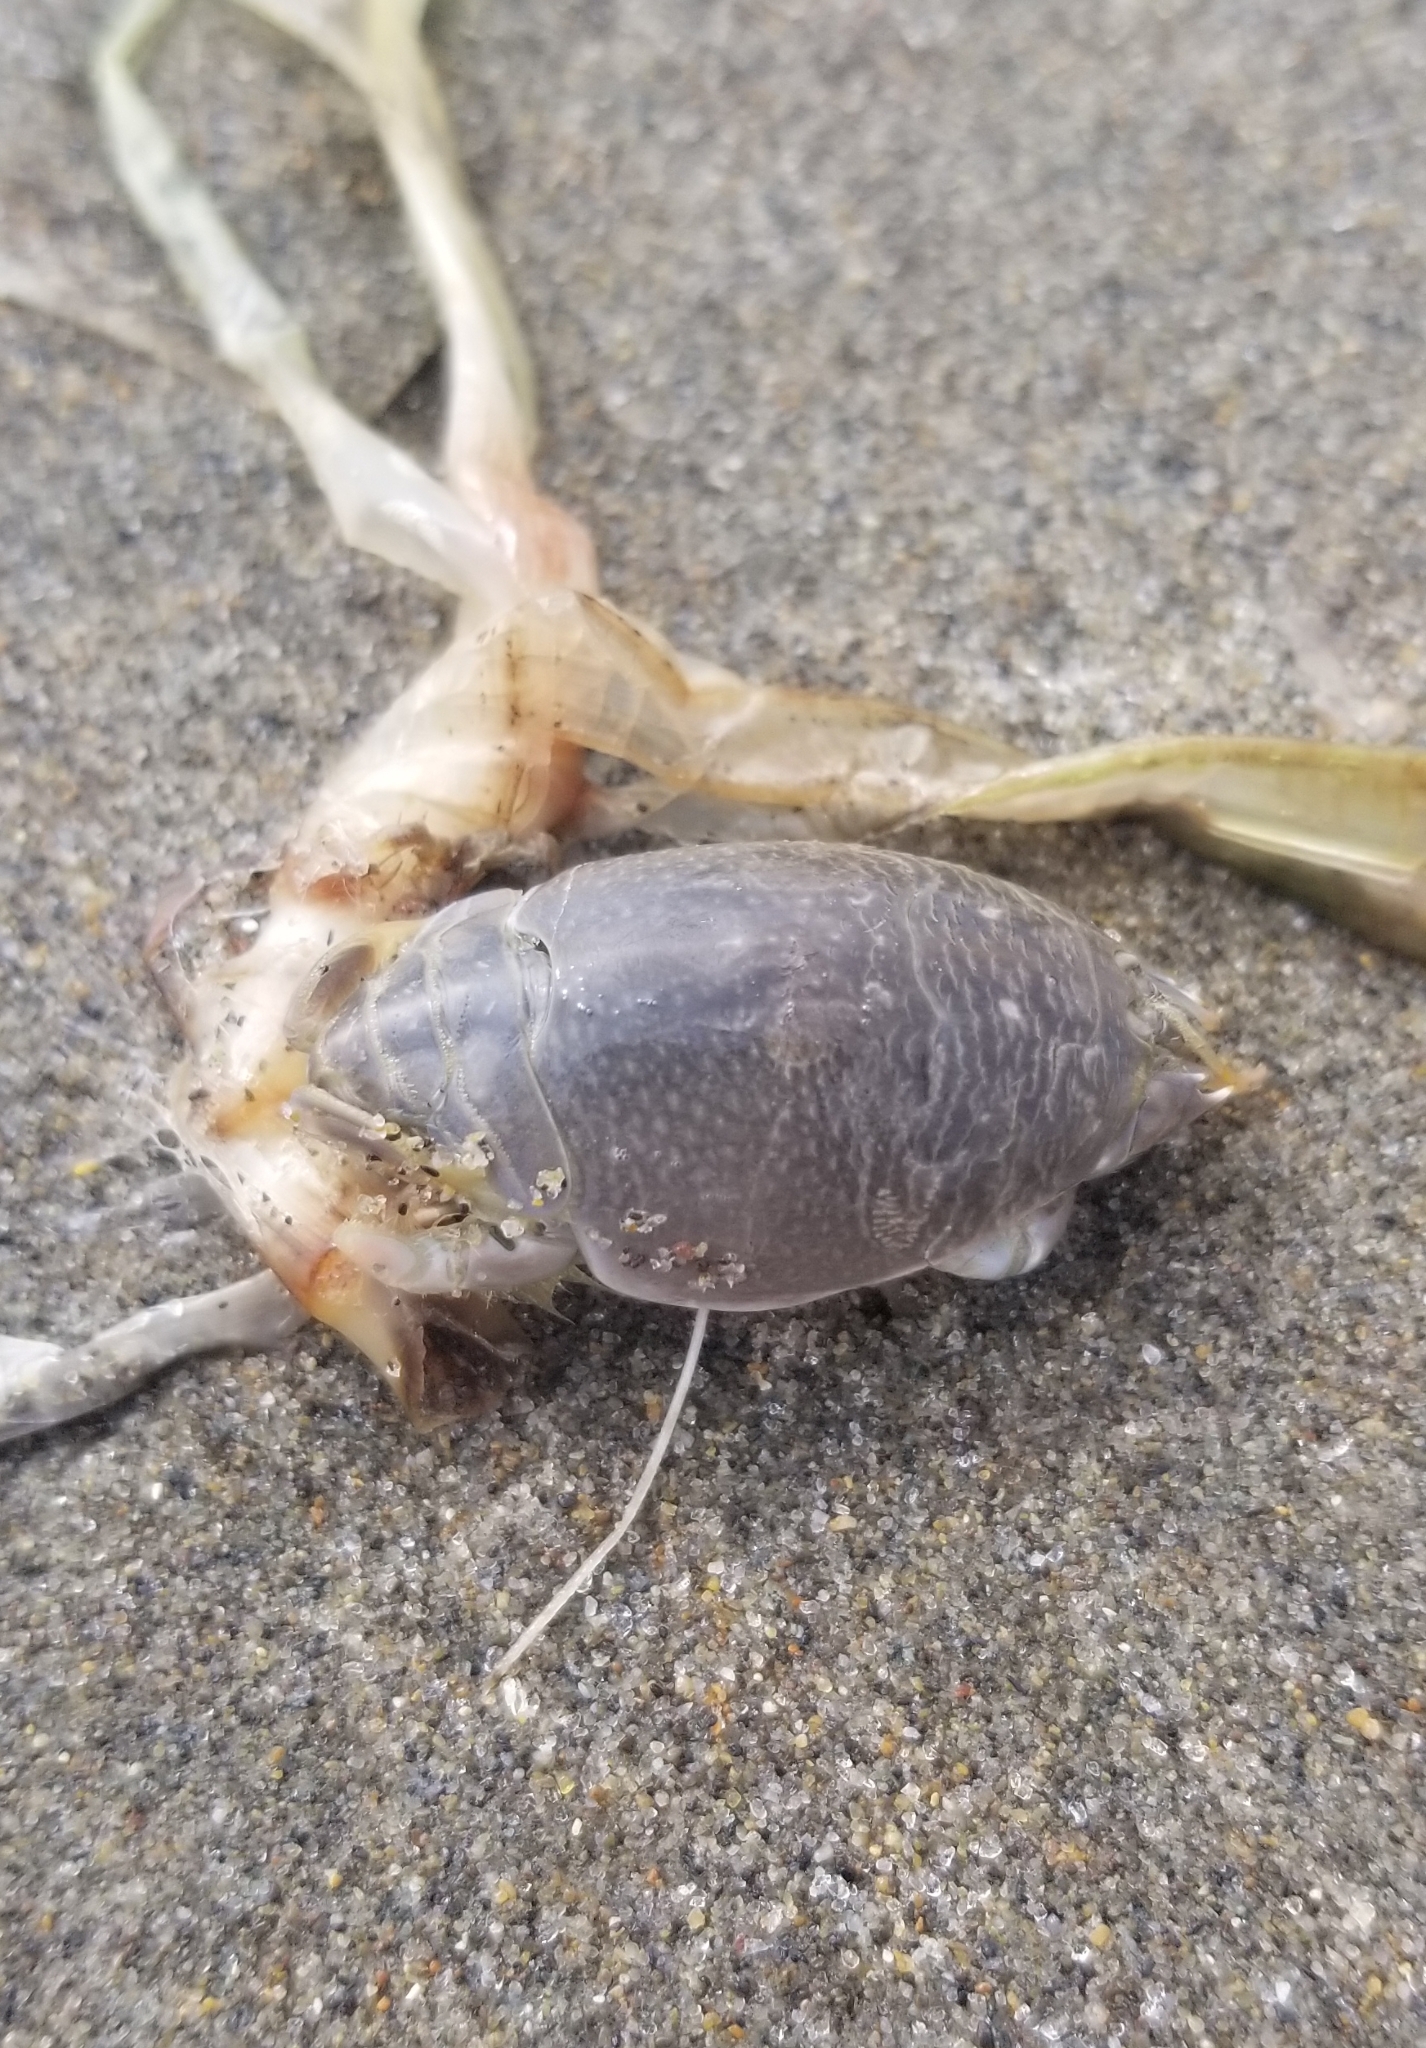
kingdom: Animalia
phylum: Arthropoda
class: Malacostraca
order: Decapoda
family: Hippidae
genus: Emerita
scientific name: Emerita analoga
